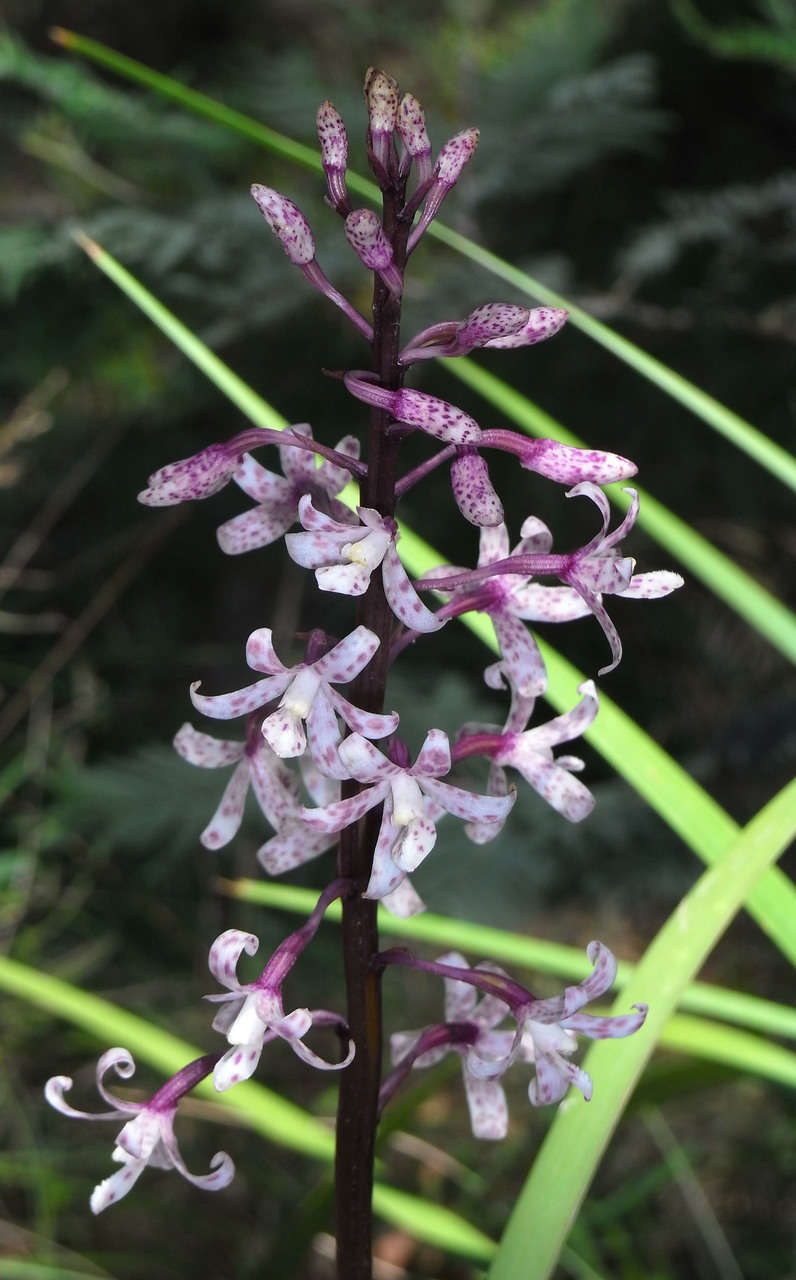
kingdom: Plantae
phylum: Tracheophyta
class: Liliopsida
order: Asparagales
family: Orchidaceae
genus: Dipodium
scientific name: Dipodium pardalinum
